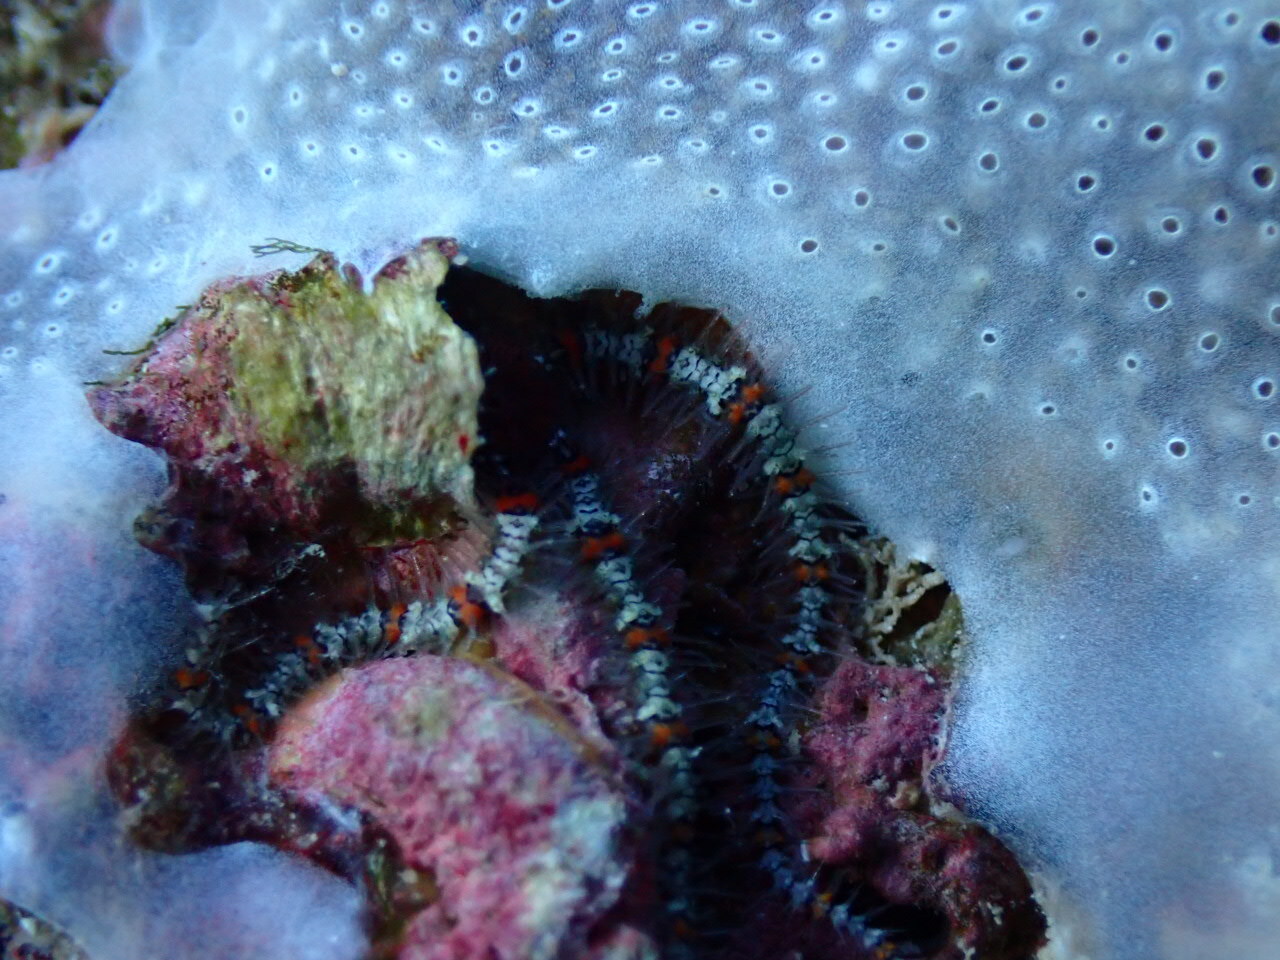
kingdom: Animalia
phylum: Echinodermata
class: Ophiuroidea
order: Amphilepidida
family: Ophiotrichidae
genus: Ophiothrix
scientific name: Ophiothrix fragilis
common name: Common brittlestar
